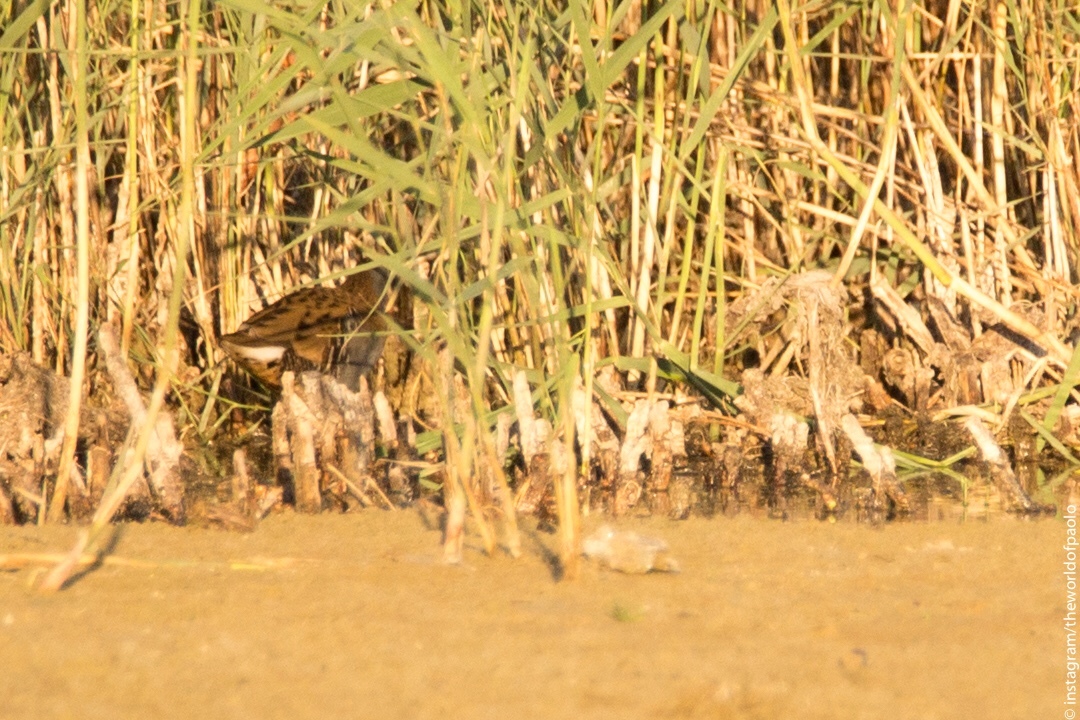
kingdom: Animalia
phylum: Chordata
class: Aves
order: Gruiformes
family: Rallidae
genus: Rallus
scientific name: Rallus aquaticus
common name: Water rail
